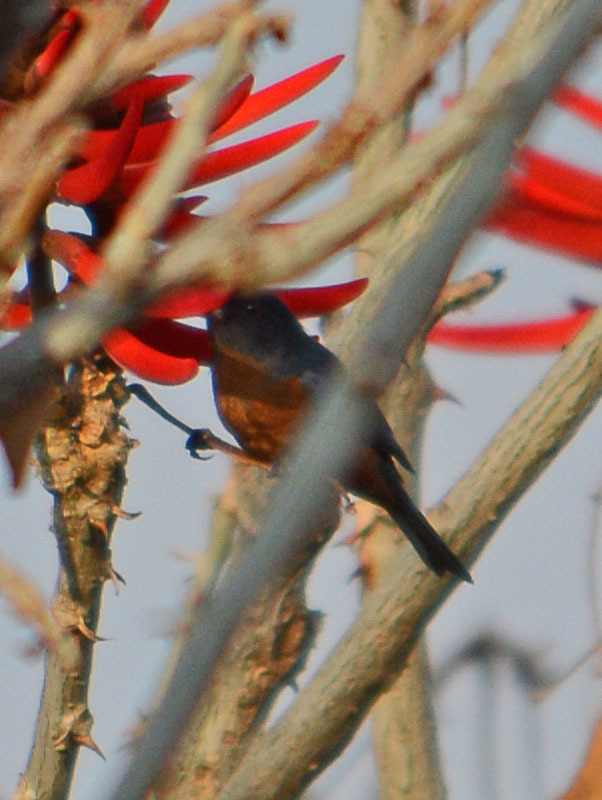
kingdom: Animalia
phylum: Chordata
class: Aves
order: Passeriformes
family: Thraupidae
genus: Diglossa
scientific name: Diglossa baritula
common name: Cinnamon-bellied flowerpiercer
